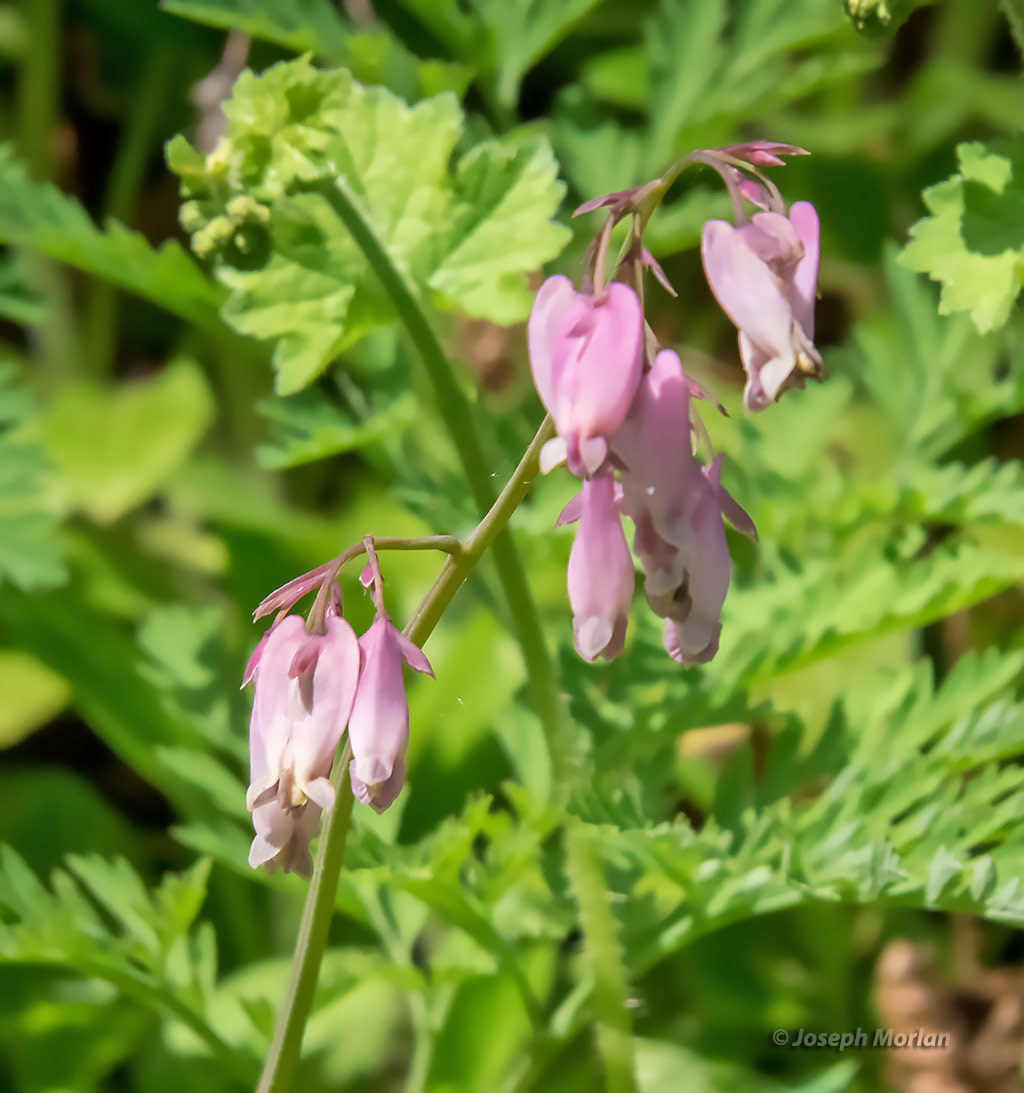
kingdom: Plantae
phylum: Tracheophyta
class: Magnoliopsida
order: Ranunculales
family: Papaveraceae
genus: Dicentra
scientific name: Dicentra formosa
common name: Bleeding-heart
